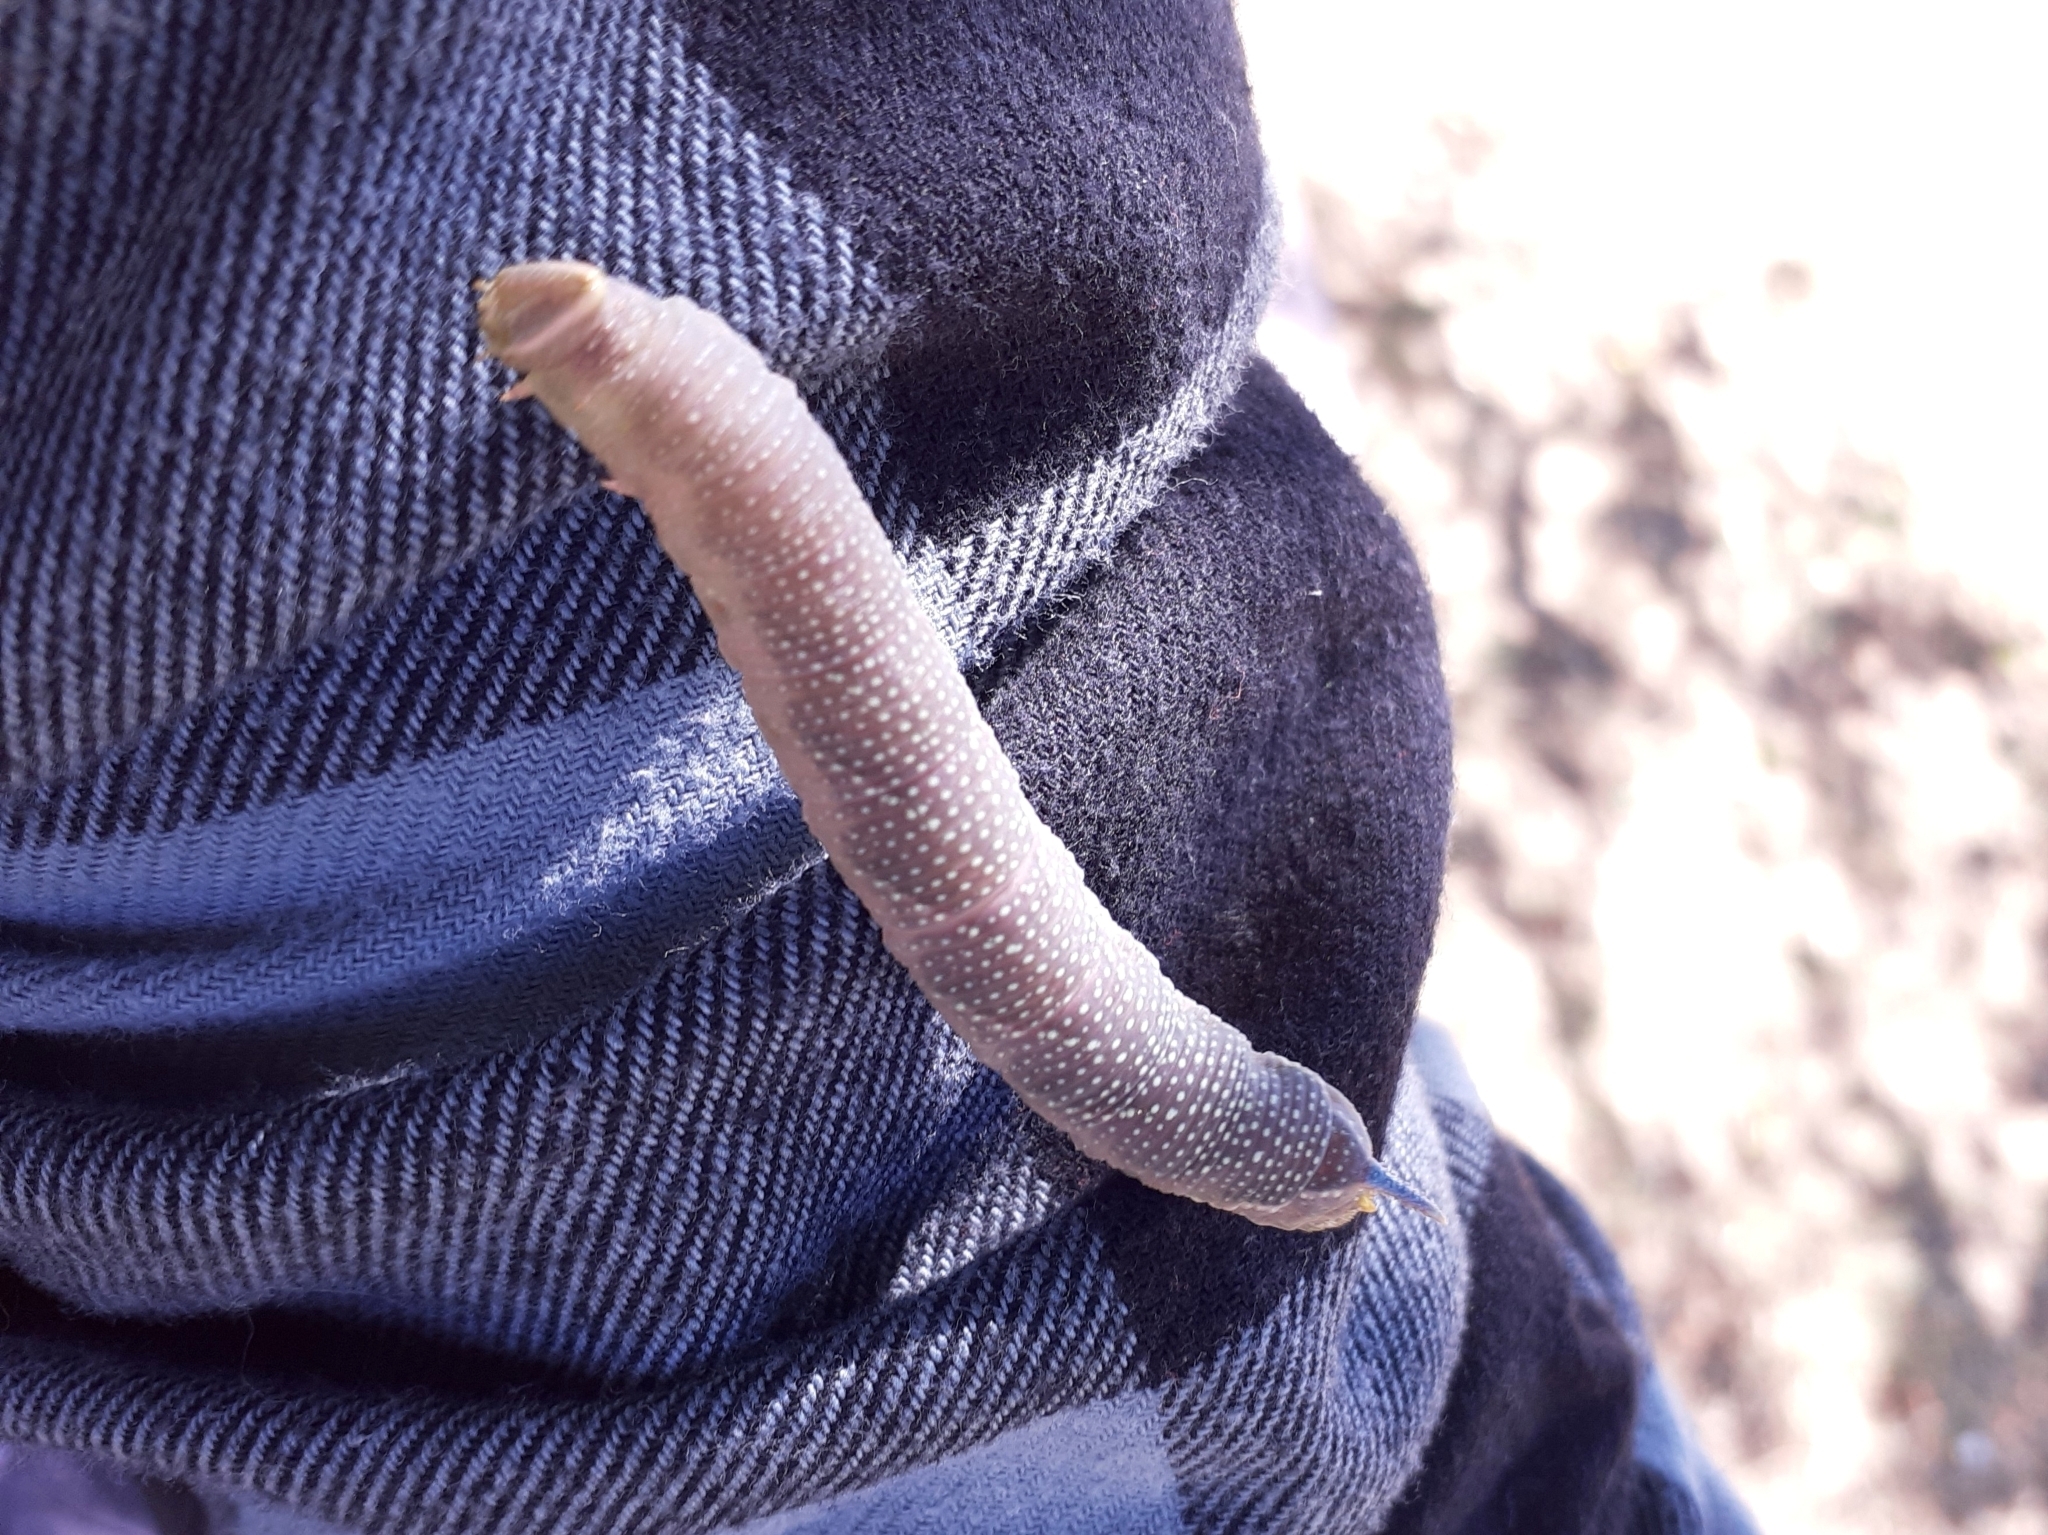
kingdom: Animalia
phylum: Arthropoda
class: Insecta
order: Lepidoptera
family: Sphingidae
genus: Mimas
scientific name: Mimas tiliae
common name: Lime hawk-moth
